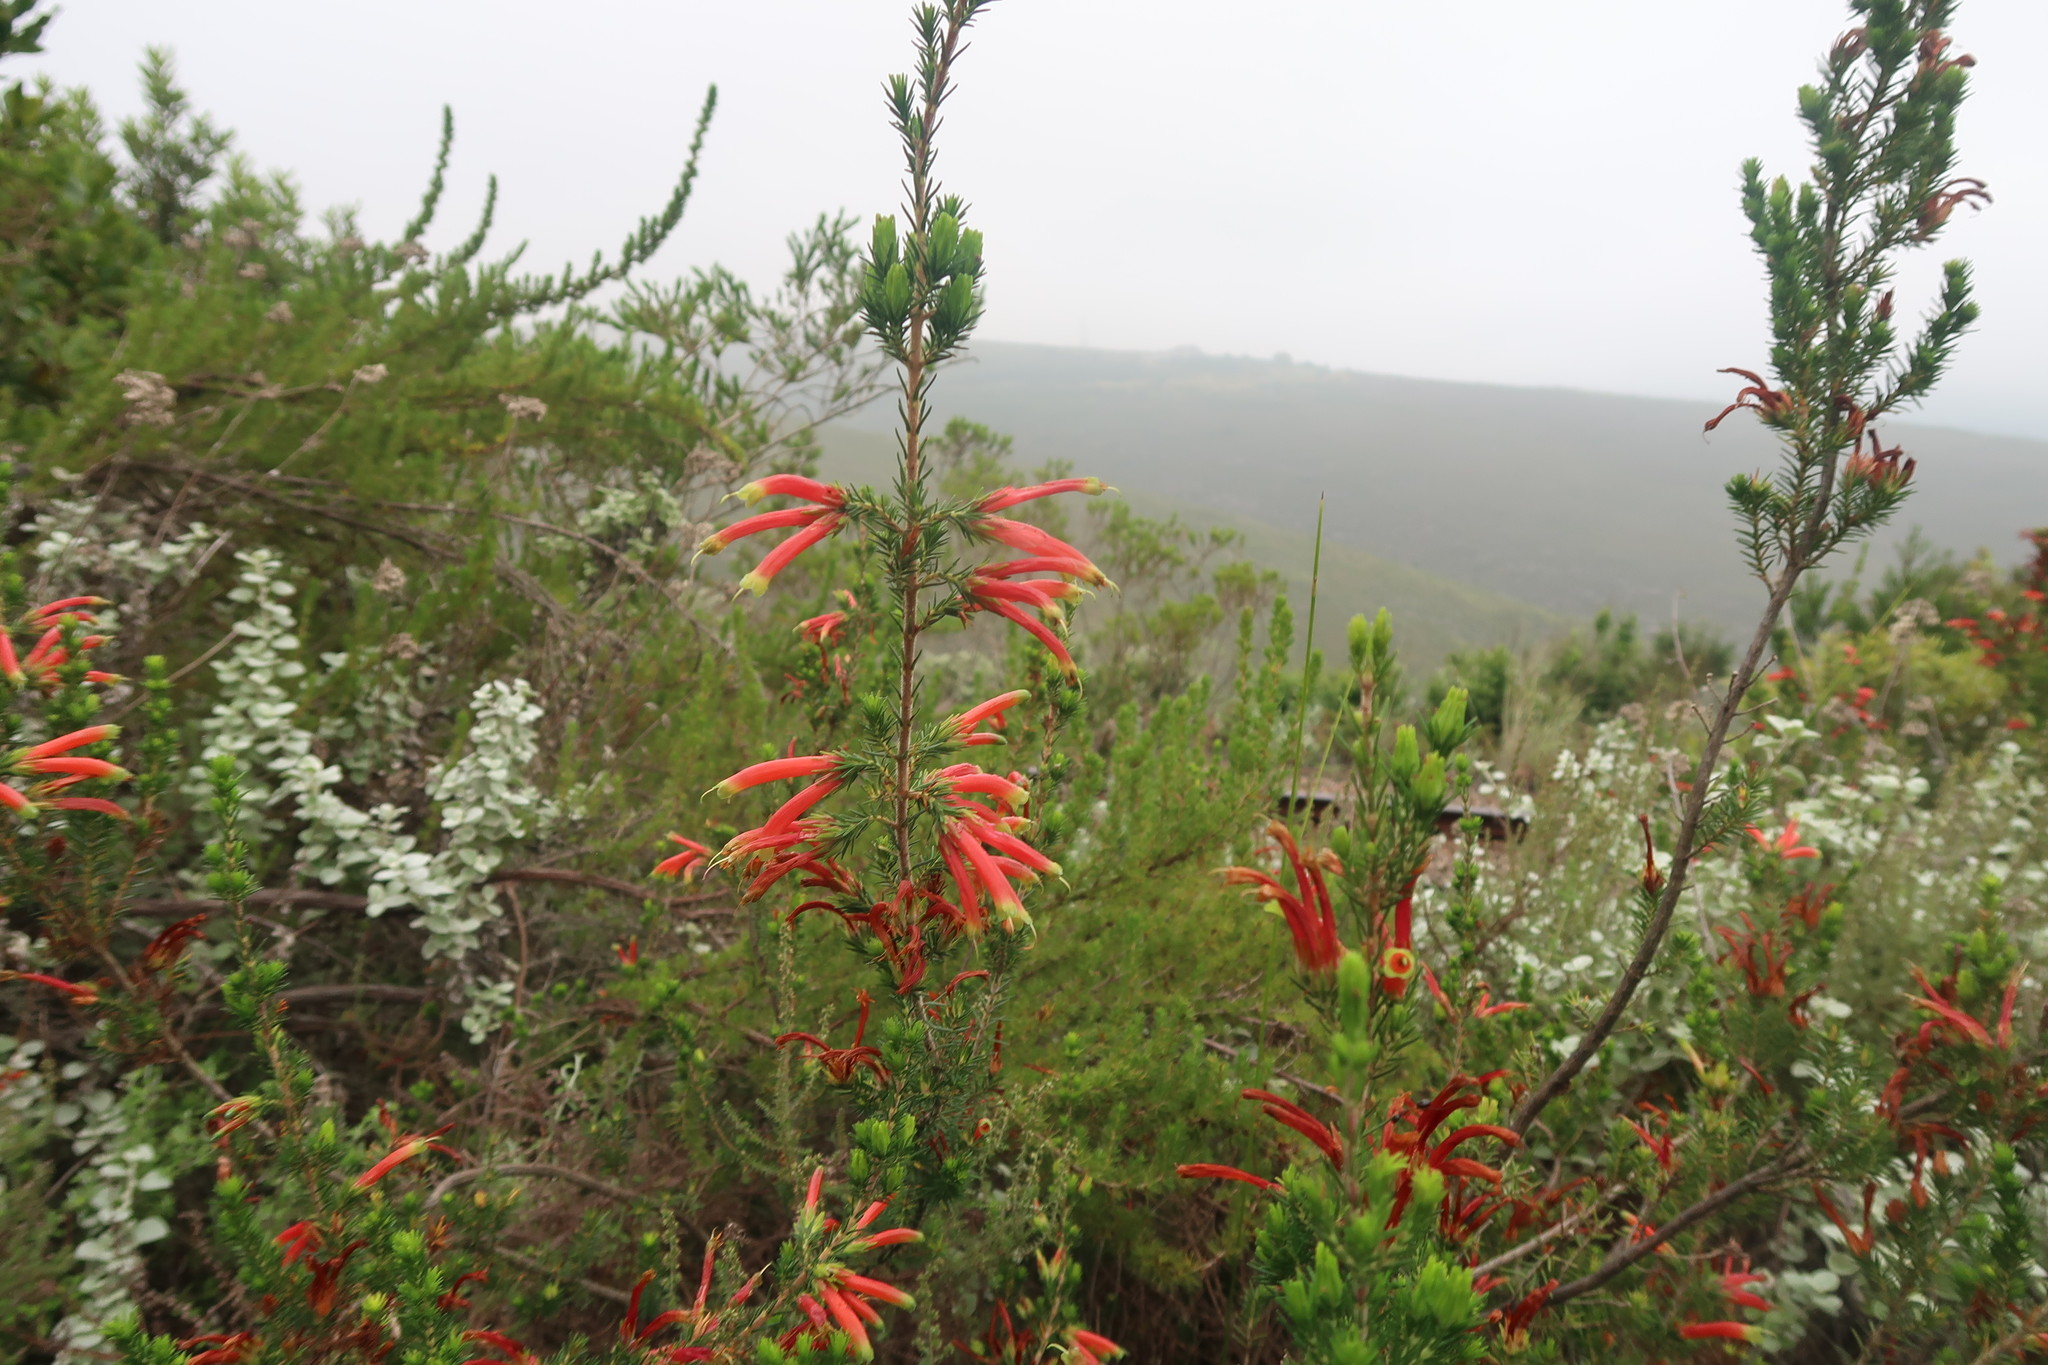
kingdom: Plantae
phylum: Tracheophyta
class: Magnoliopsida
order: Ericales
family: Ericaceae
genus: Erica
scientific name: Erica unicolor
